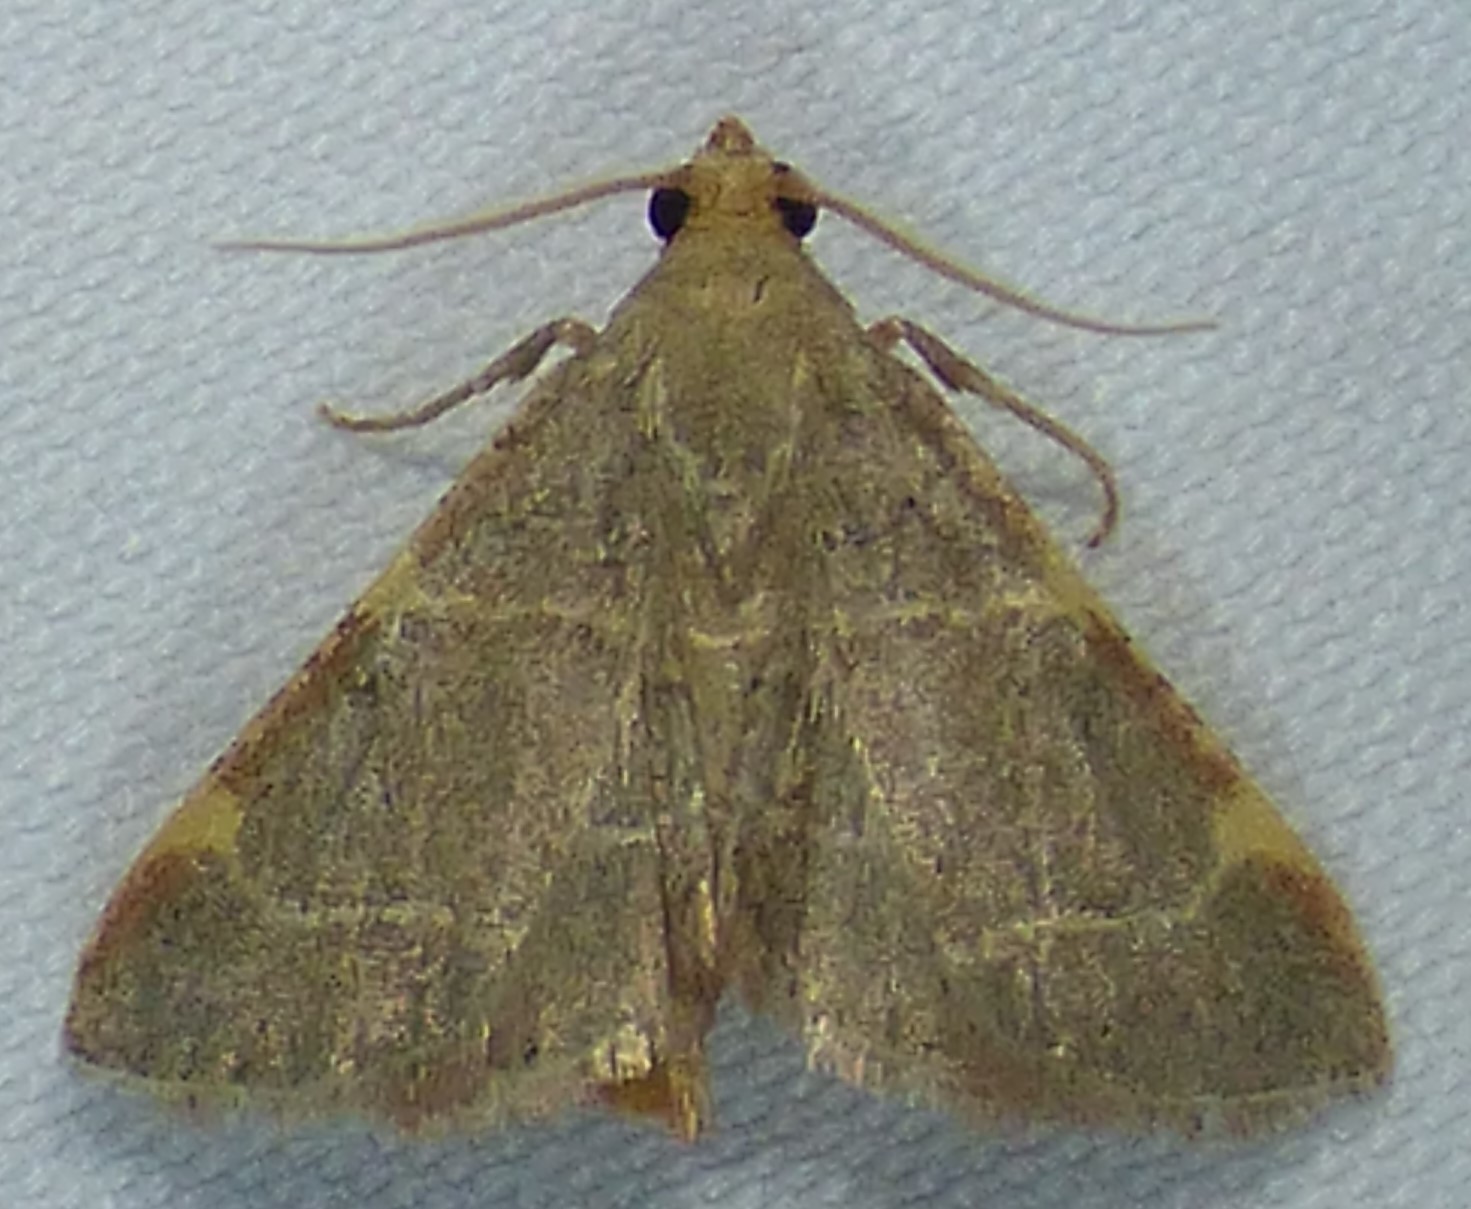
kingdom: Animalia
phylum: Arthropoda
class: Insecta
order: Lepidoptera
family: Pyralidae
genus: Hypsopygia
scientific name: Hypsopygia binodulalis
